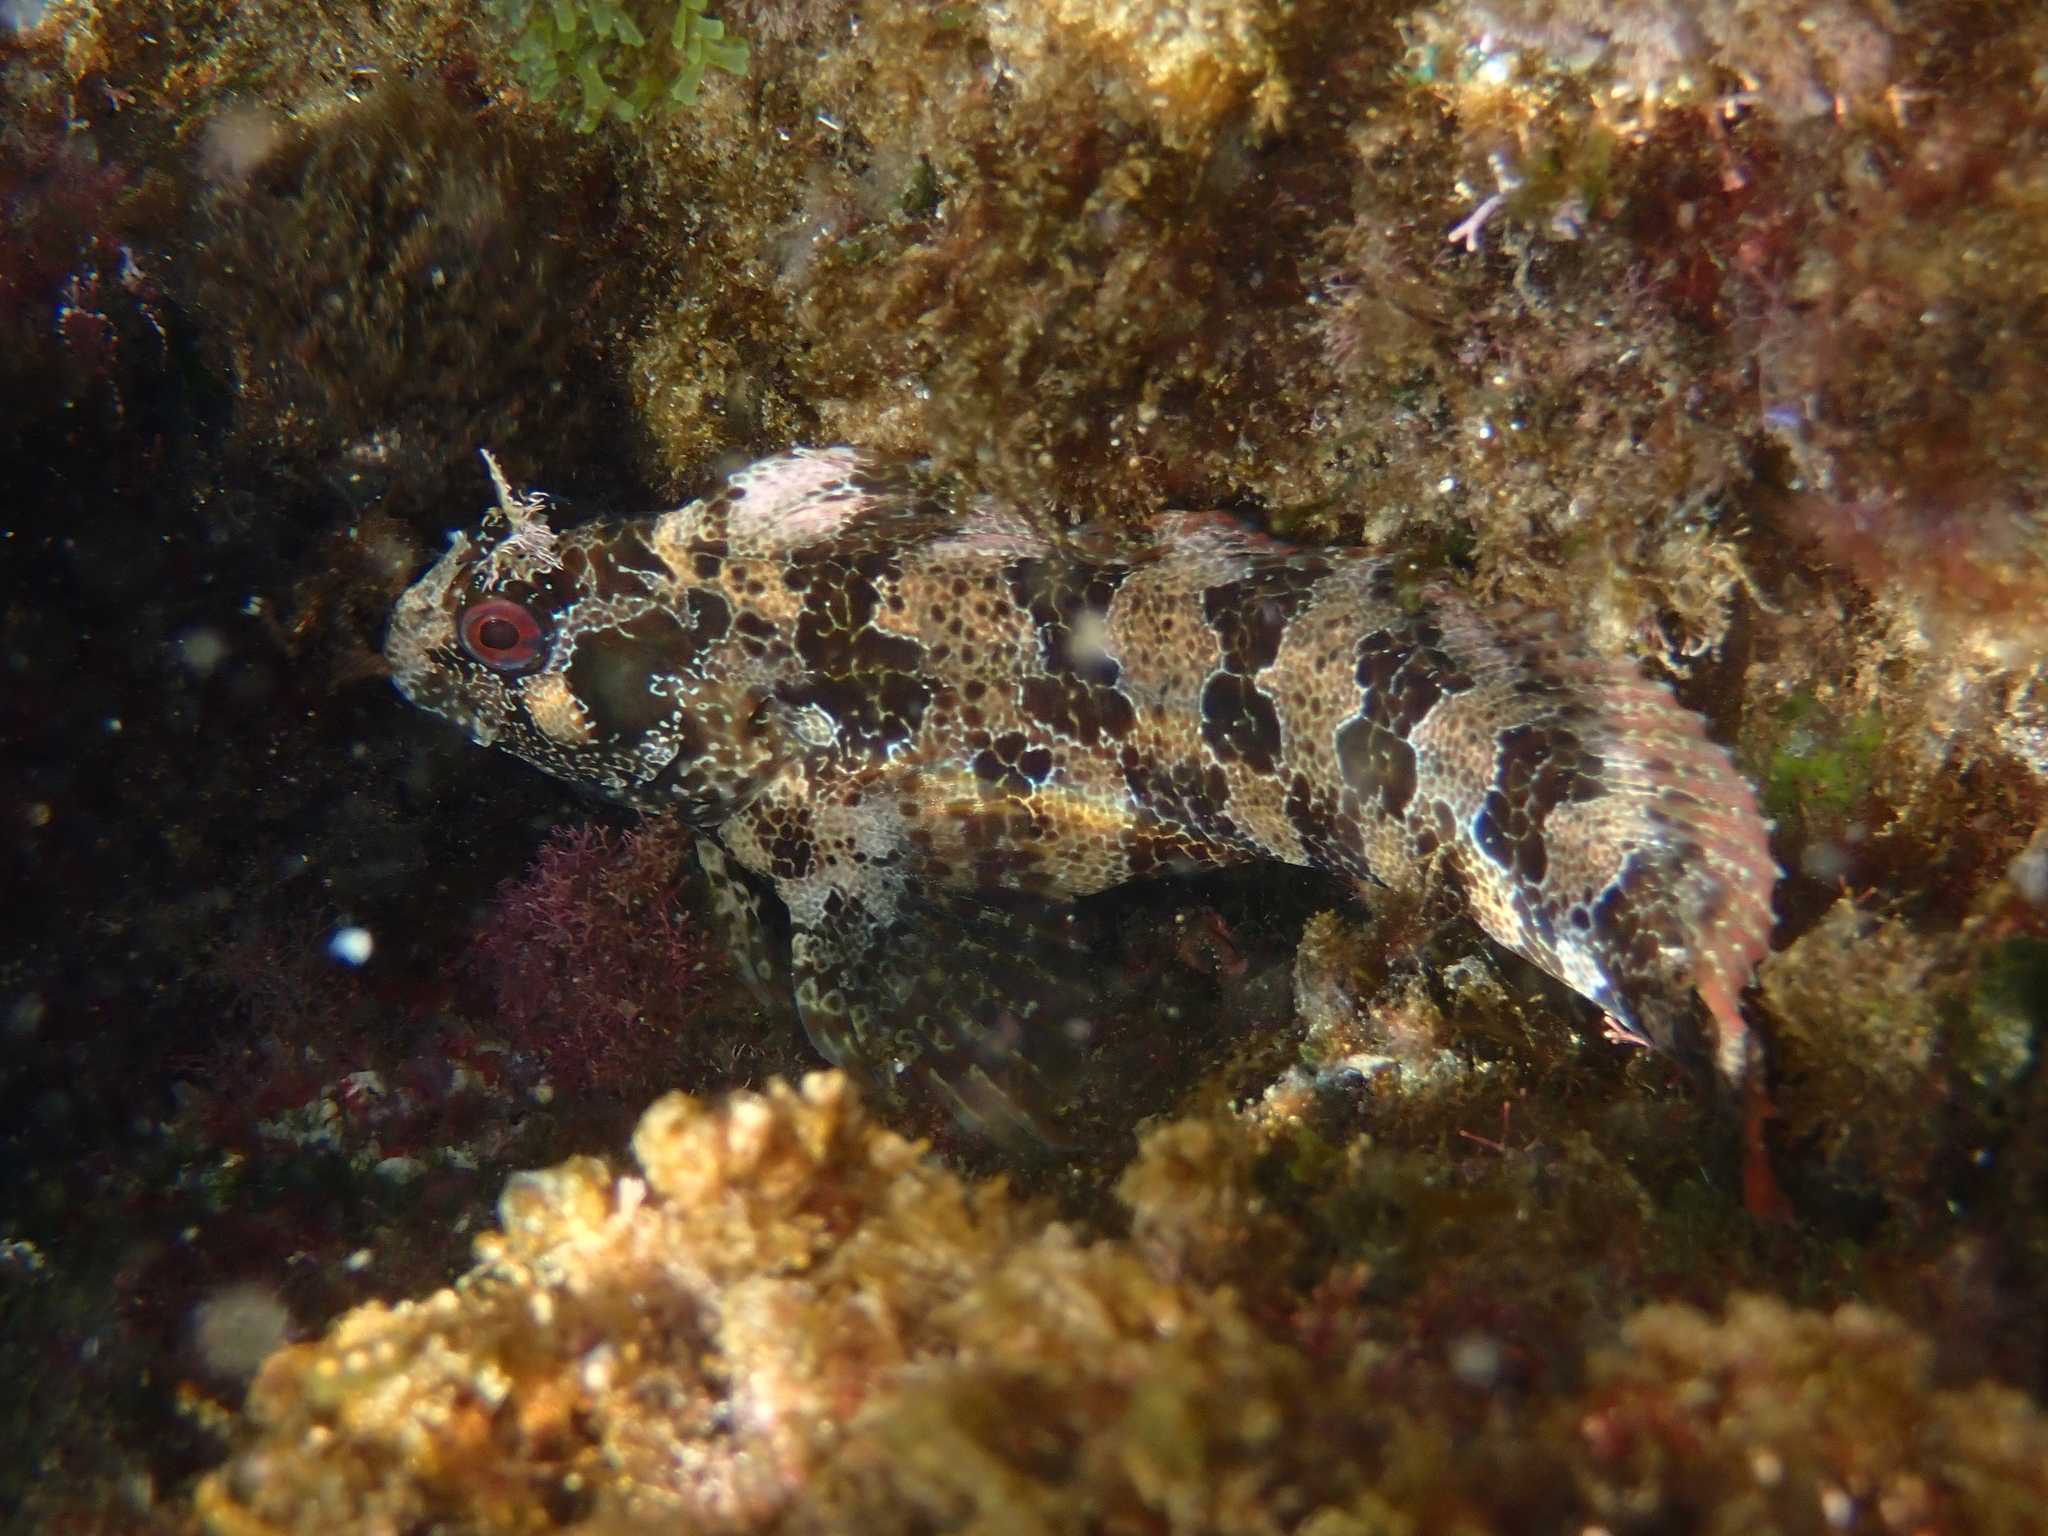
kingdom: Animalia
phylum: Chordata
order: Perciformes
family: Blenniidae
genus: Parablennius
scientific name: Parablennius gattorugine
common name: Tompot blenny
